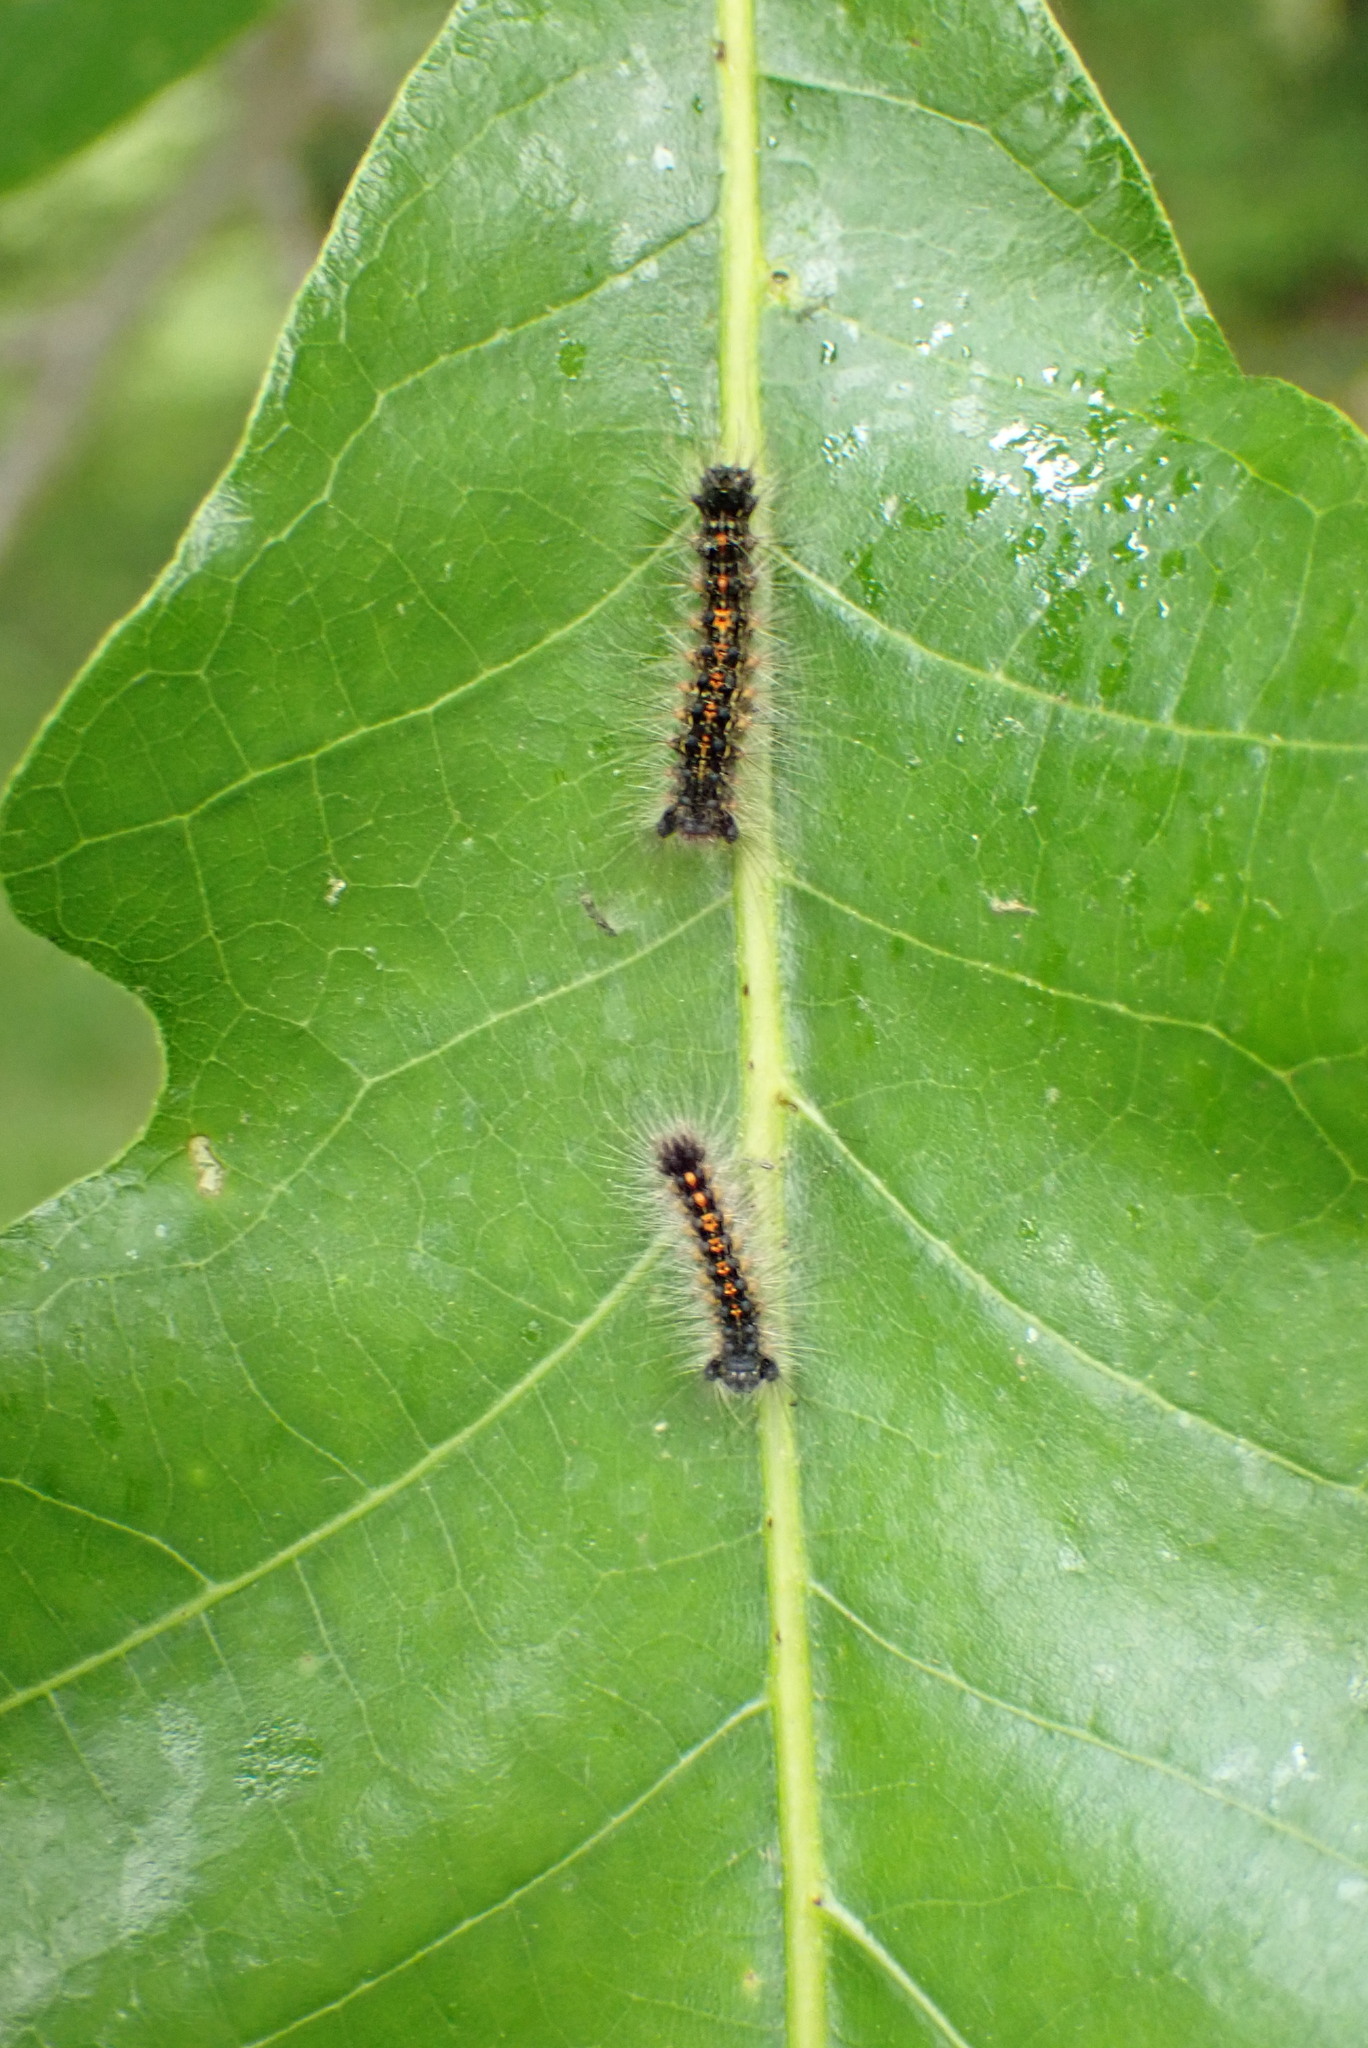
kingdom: Animalia
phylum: Arthropoda
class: Insecta
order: Lepidoptera
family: Erebidae
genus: Lymantria
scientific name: Lymantria dispar
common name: Gypsy moth
